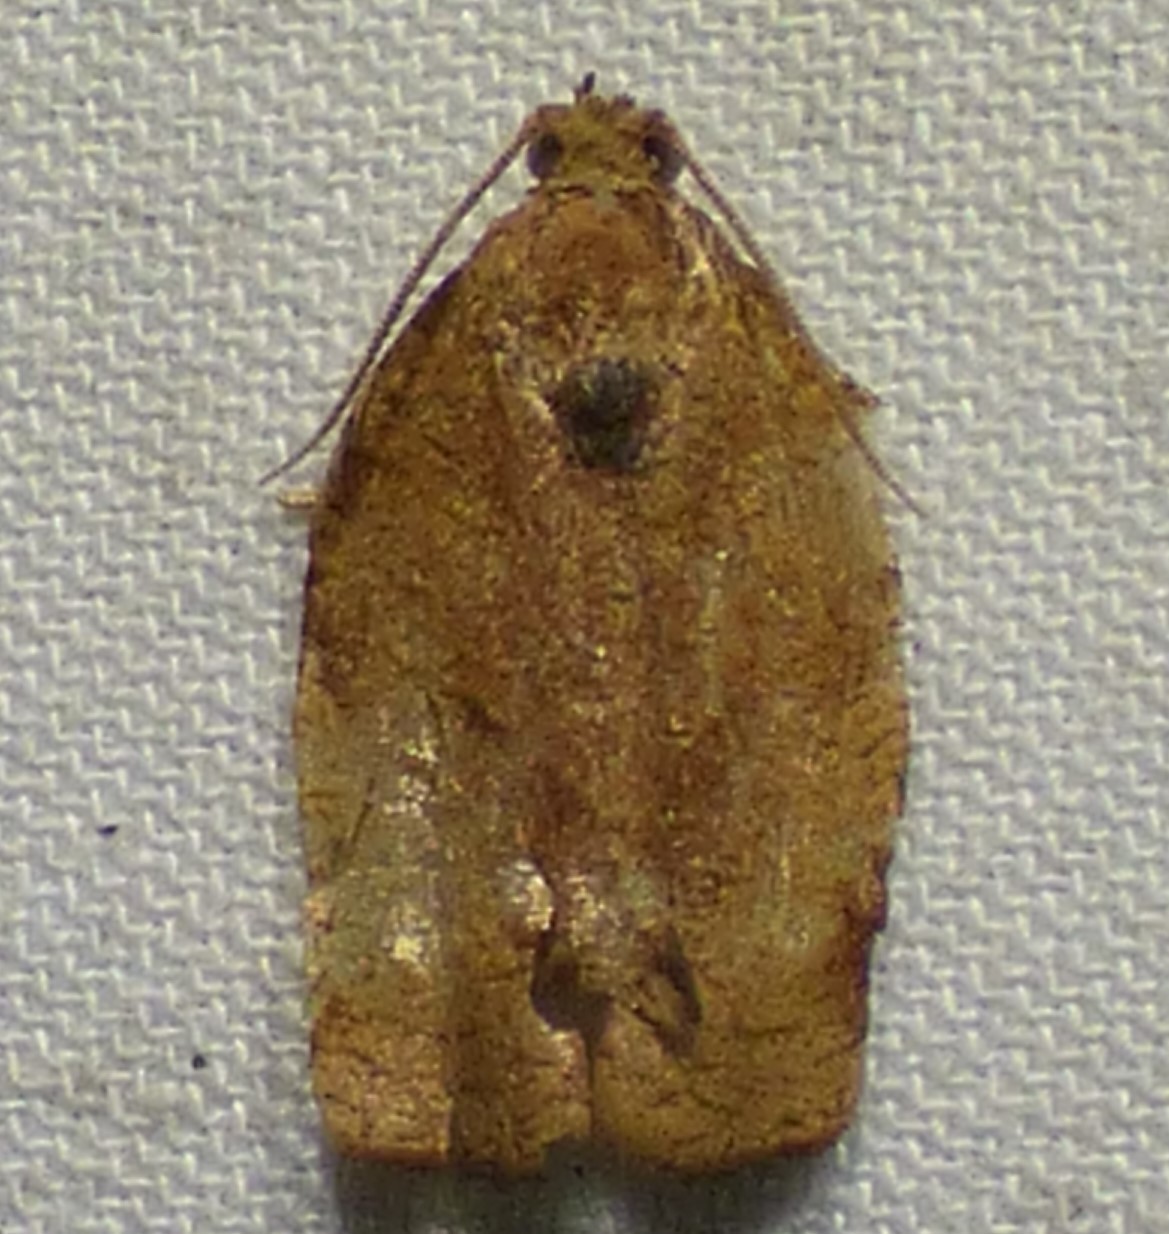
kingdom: Animalia
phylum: Arthropoda
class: Insecta
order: Lepidoptera
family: Tortricidae
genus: Choristoneura
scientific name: Choristoneura rosaceana
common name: Oblique-banded leafroller moth
